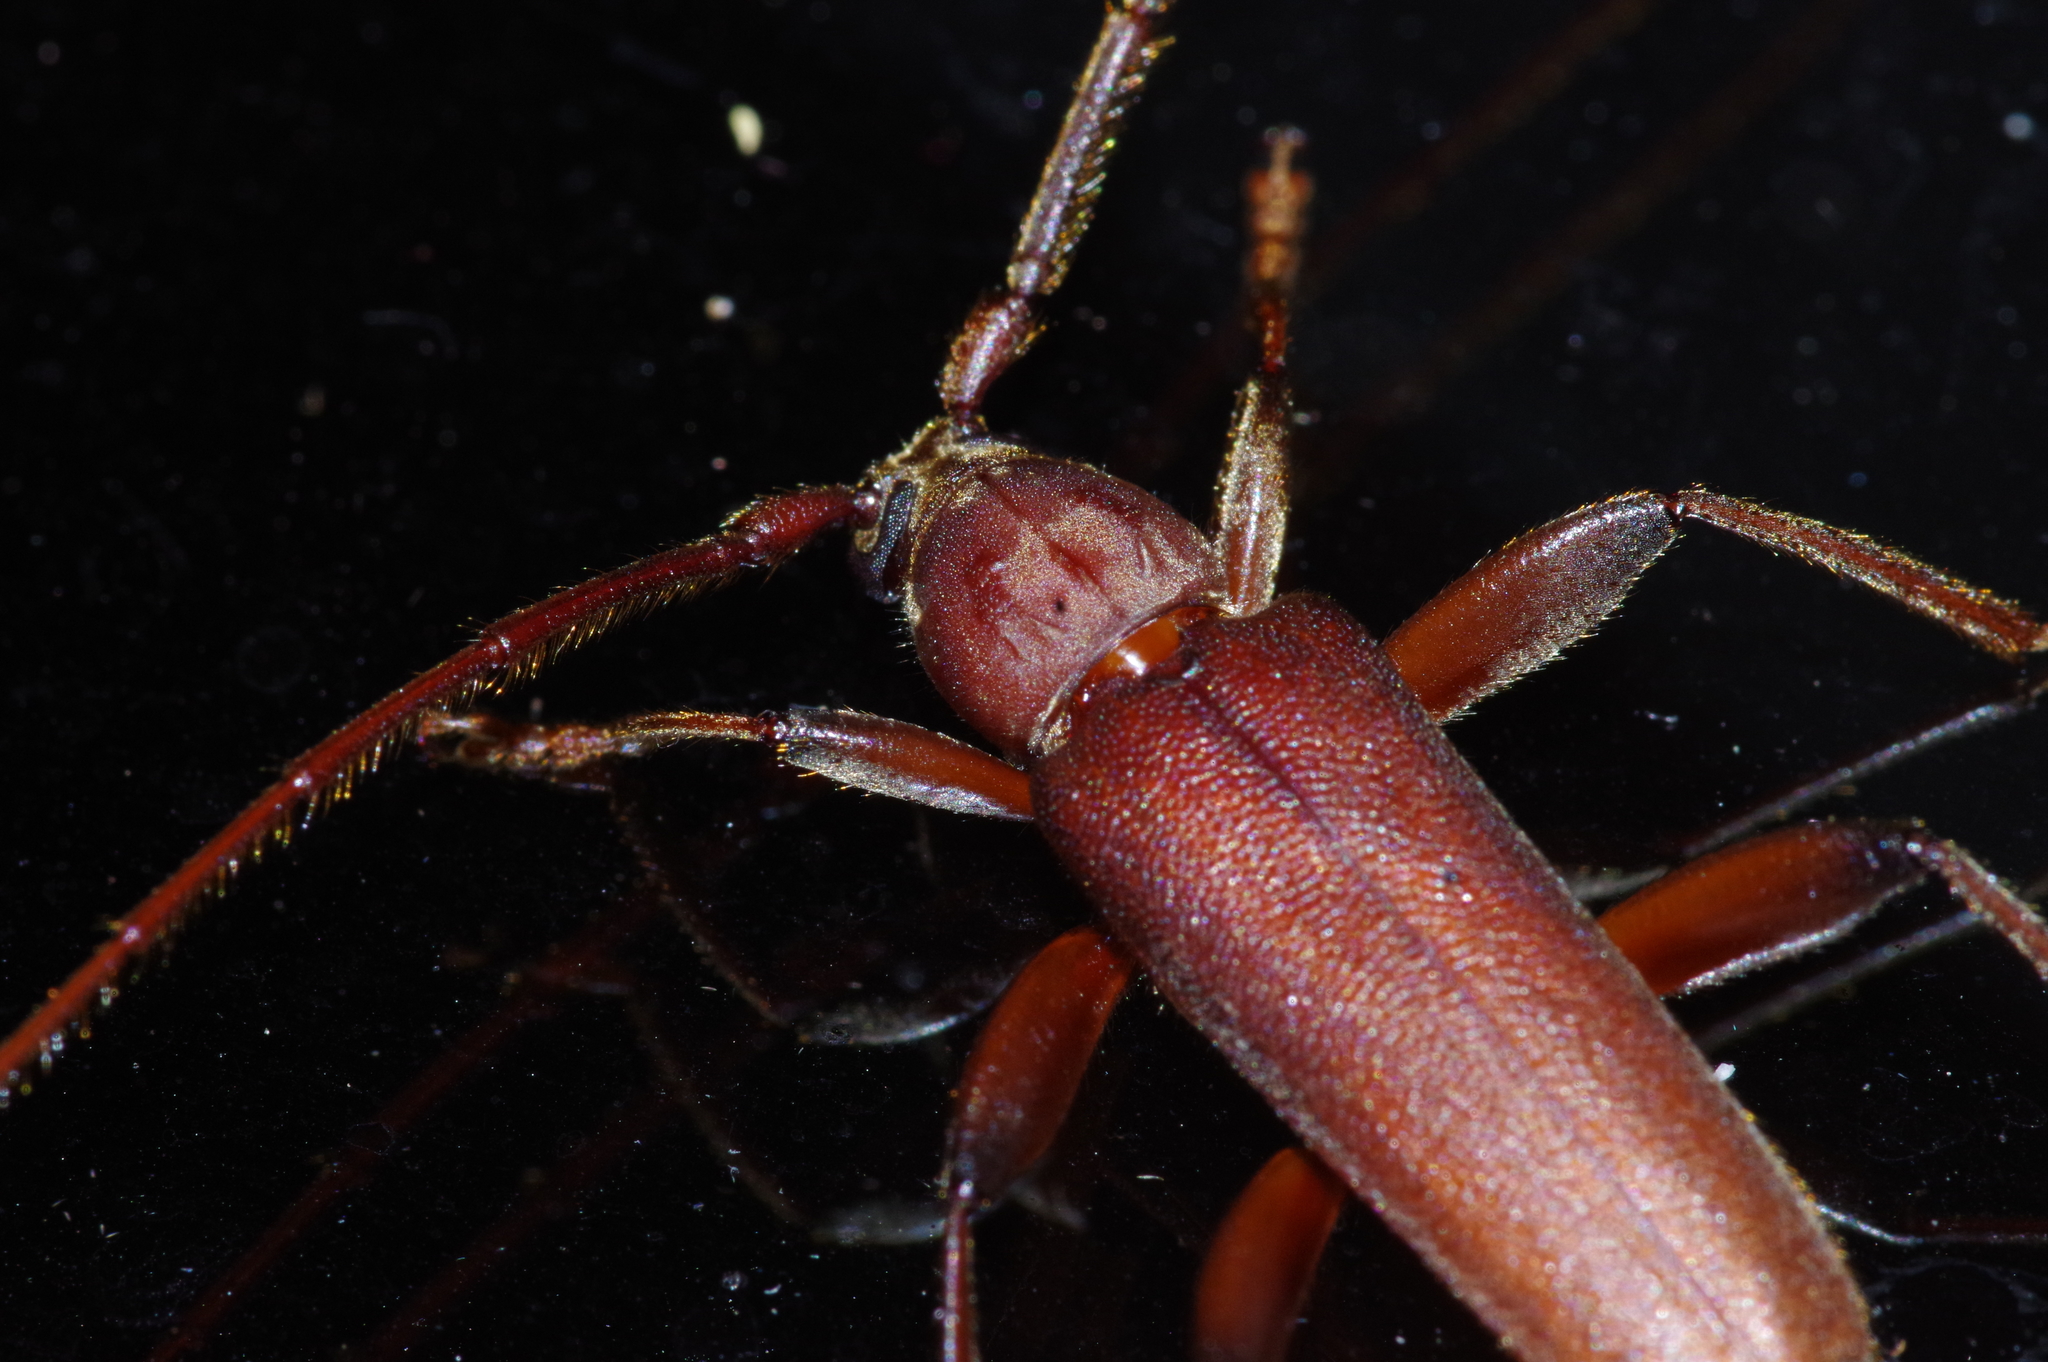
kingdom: Animalia
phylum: Arthropoda
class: Insecta
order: Coleoptera
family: Cerambycidae
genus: Nortia
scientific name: Nortia carinicollis
